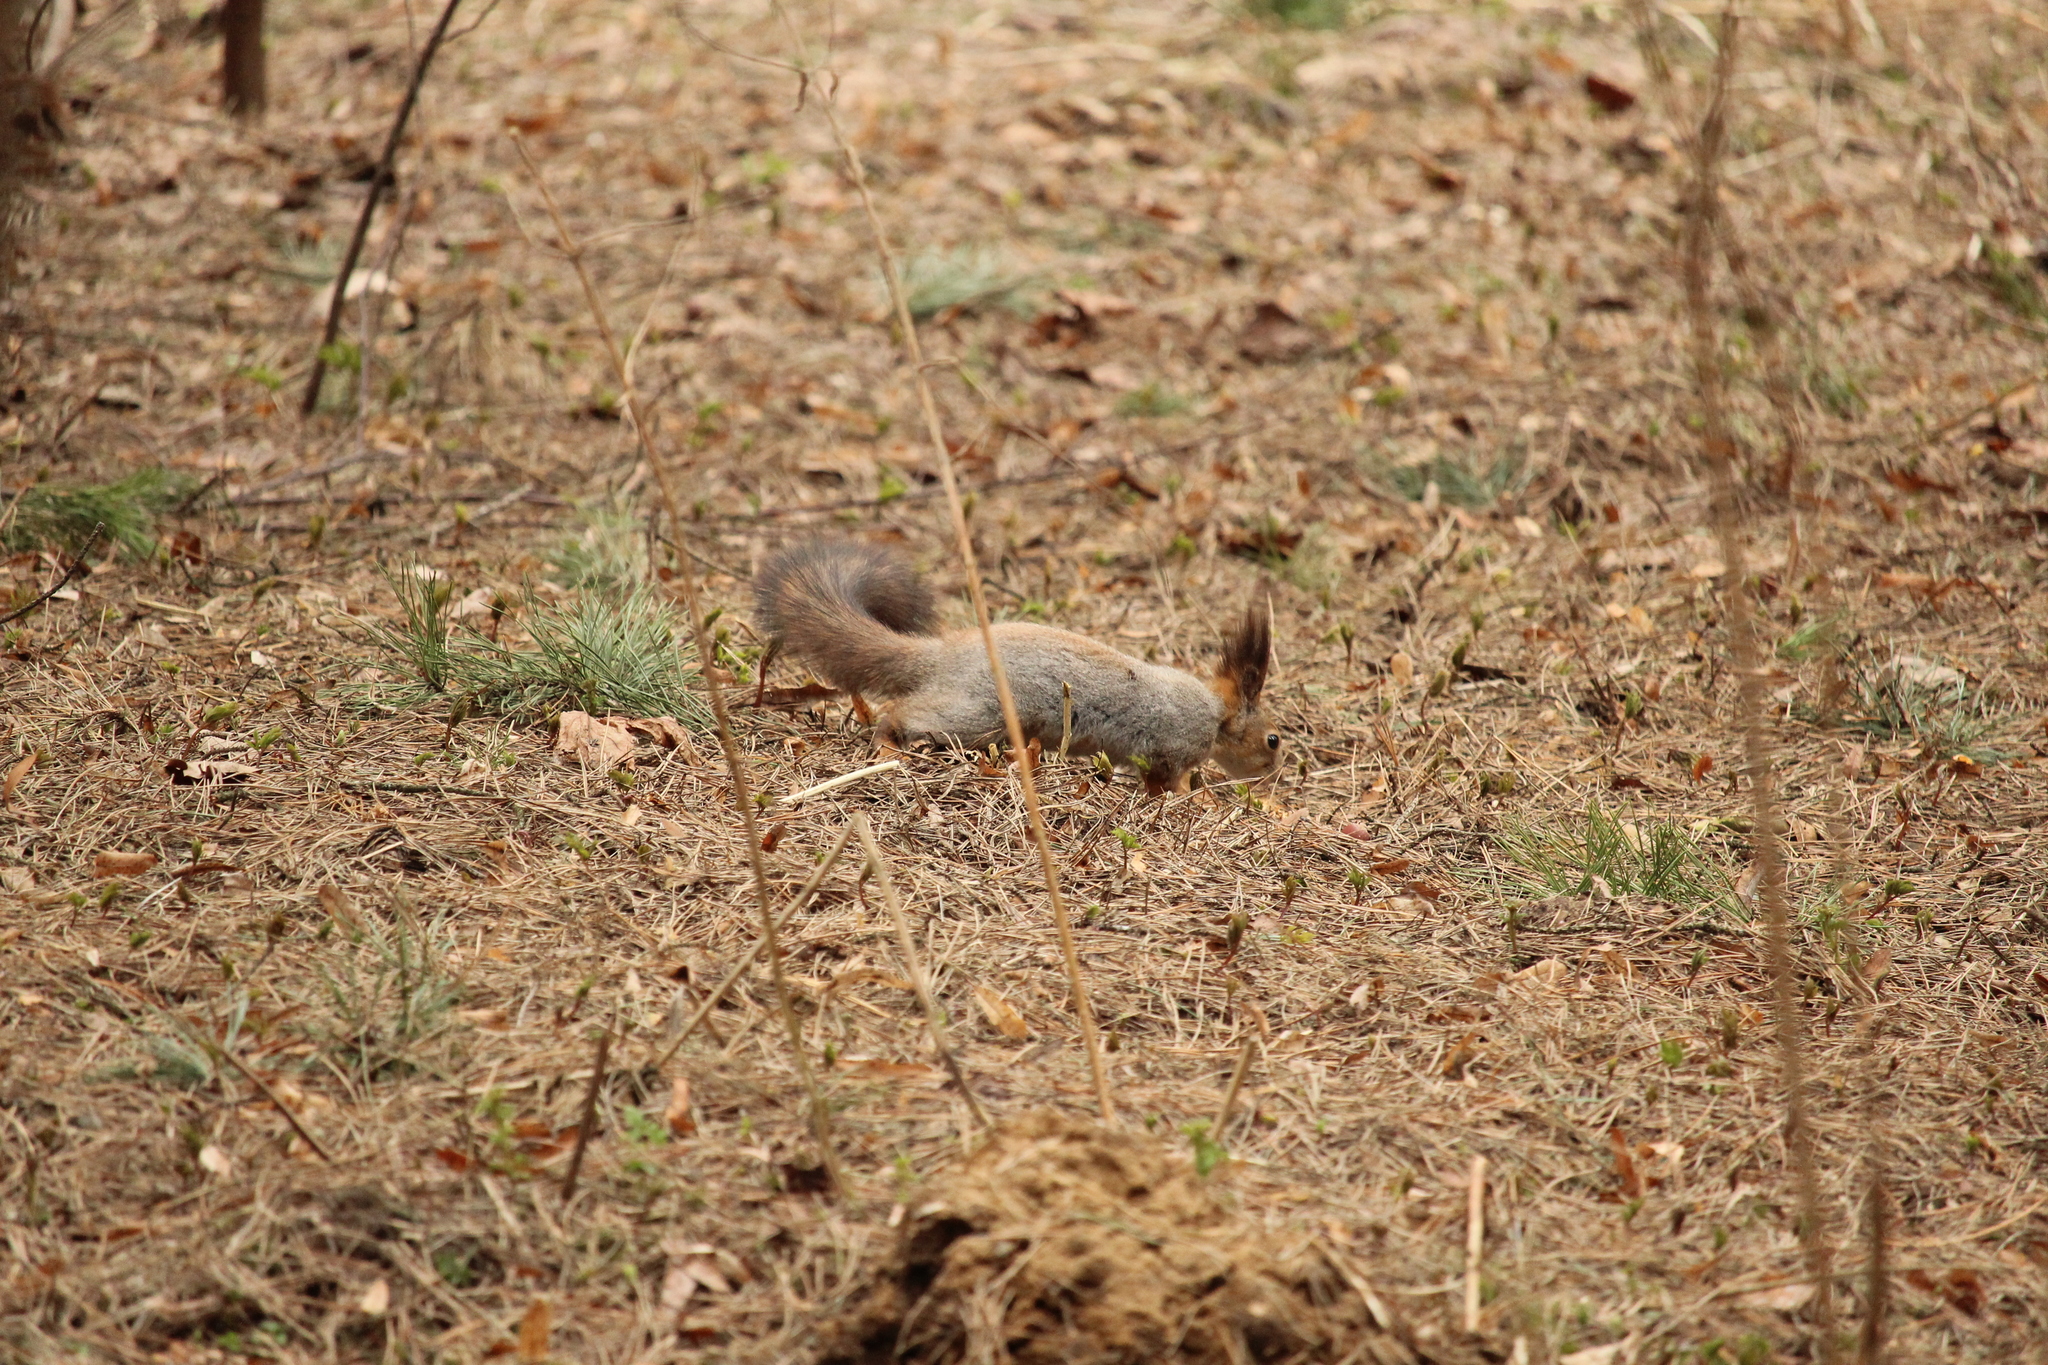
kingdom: Animalia
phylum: Chordata
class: Mammalia
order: Rodentia
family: Sciuridae
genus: Sciurus
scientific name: Sciurus vulgaris
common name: Eurasian red squirrel
